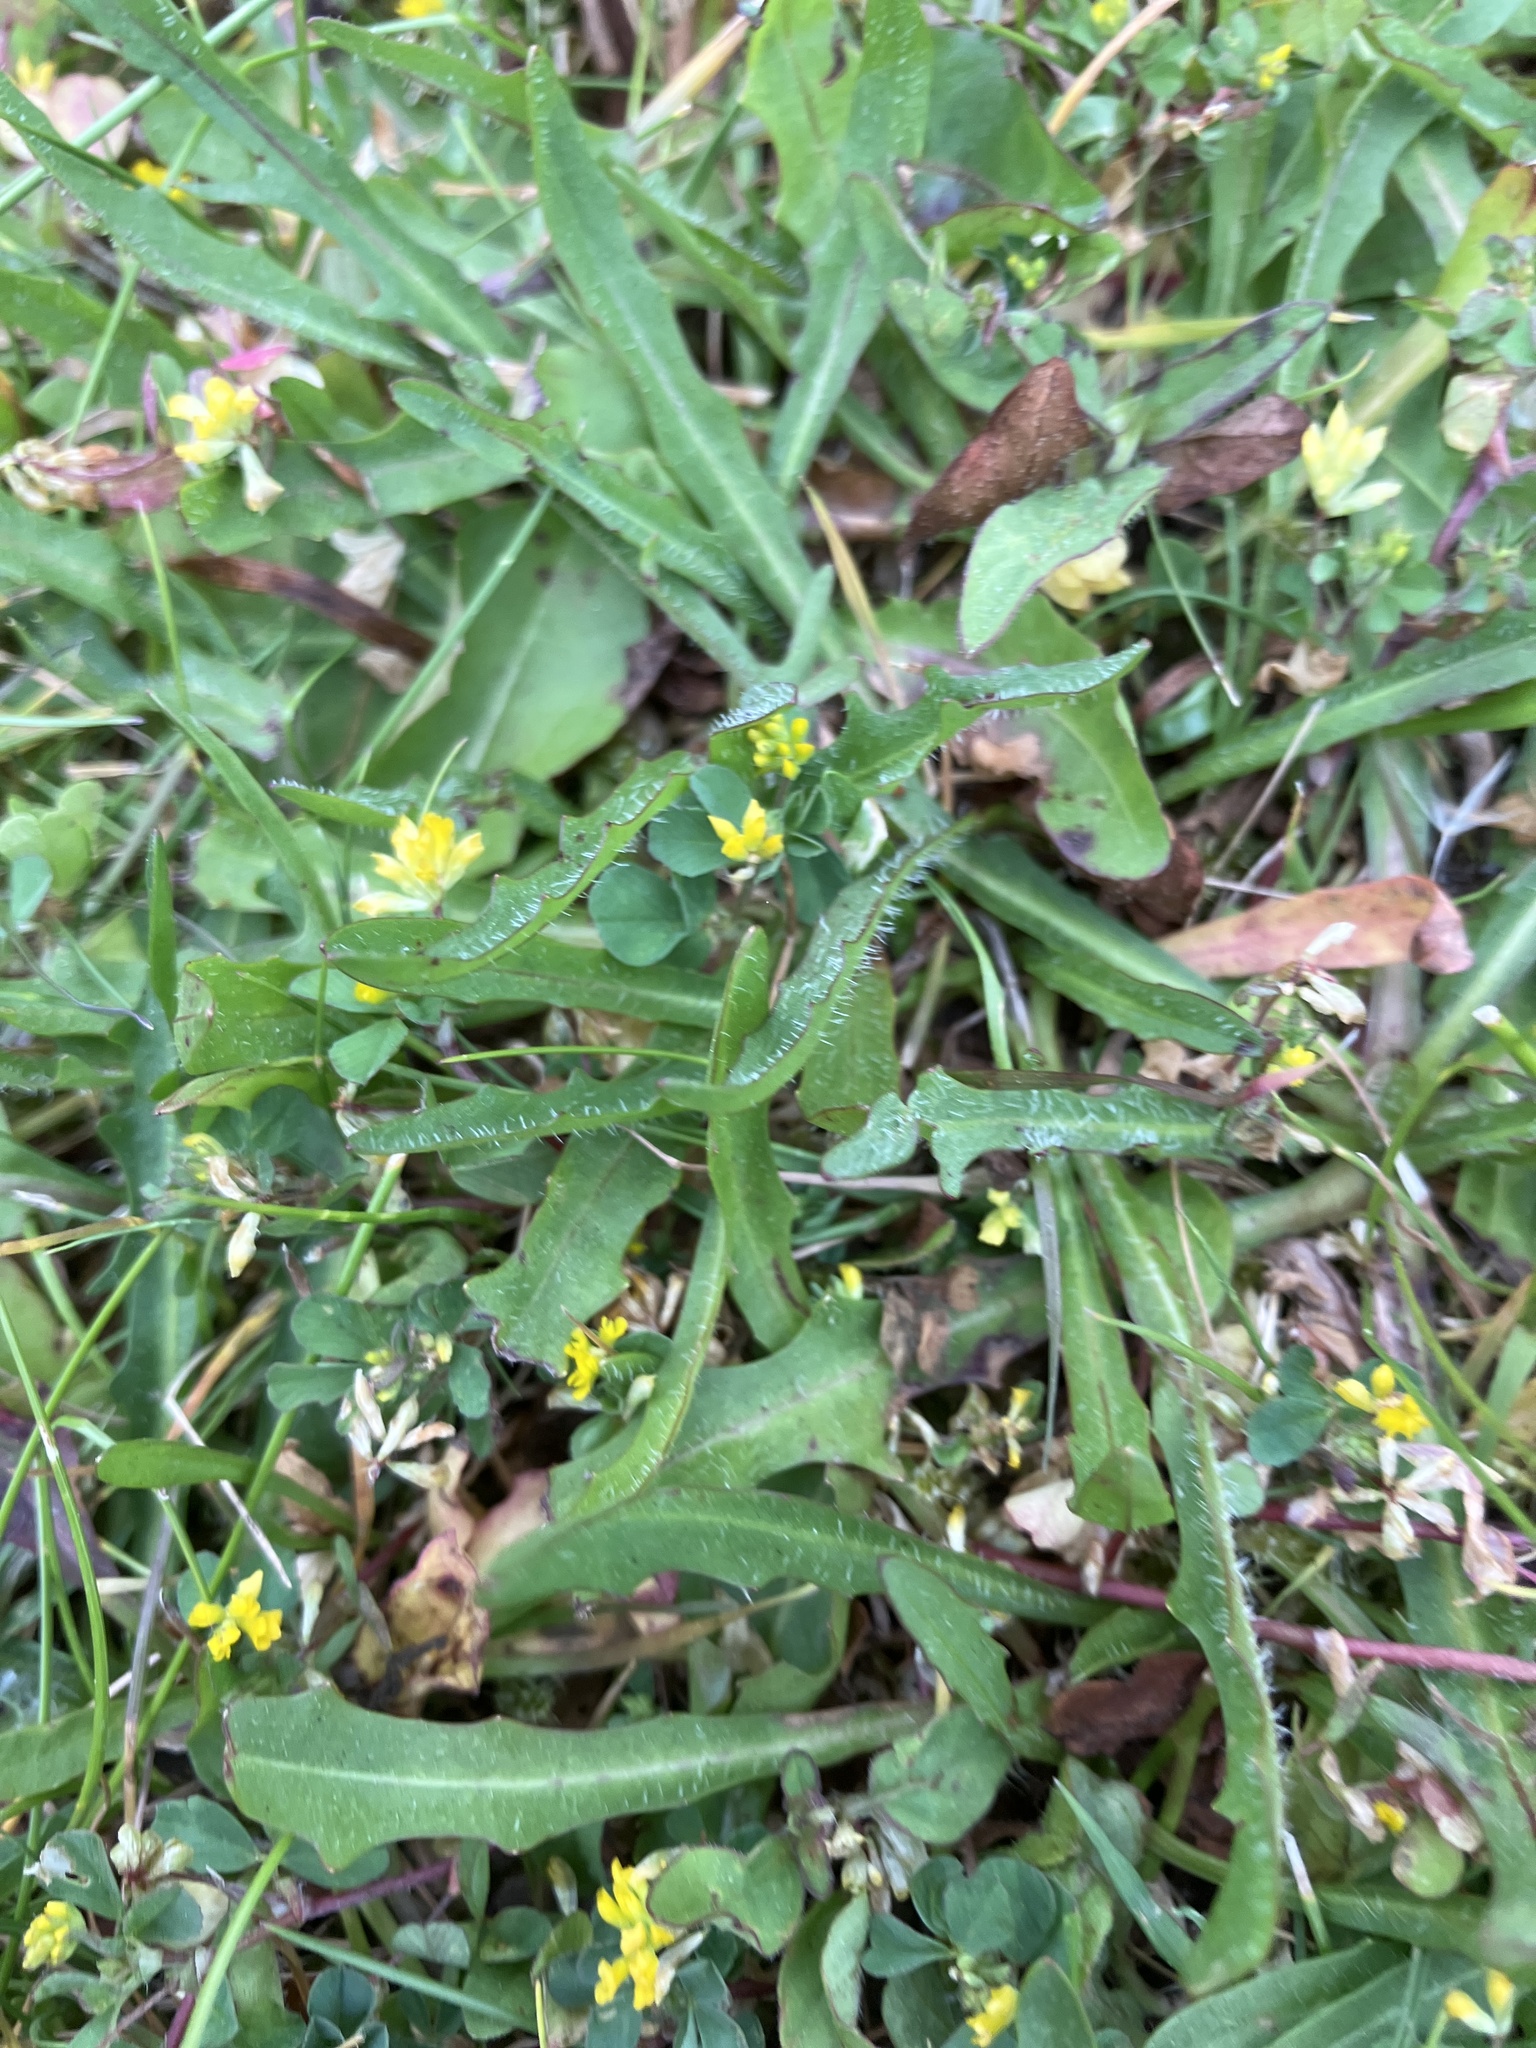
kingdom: Plantae
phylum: Tracheophyta
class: Magnoliopsida
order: Fabales
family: Fabaceae
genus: Trifolium
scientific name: Trifolium dubium
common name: Suckling clover
